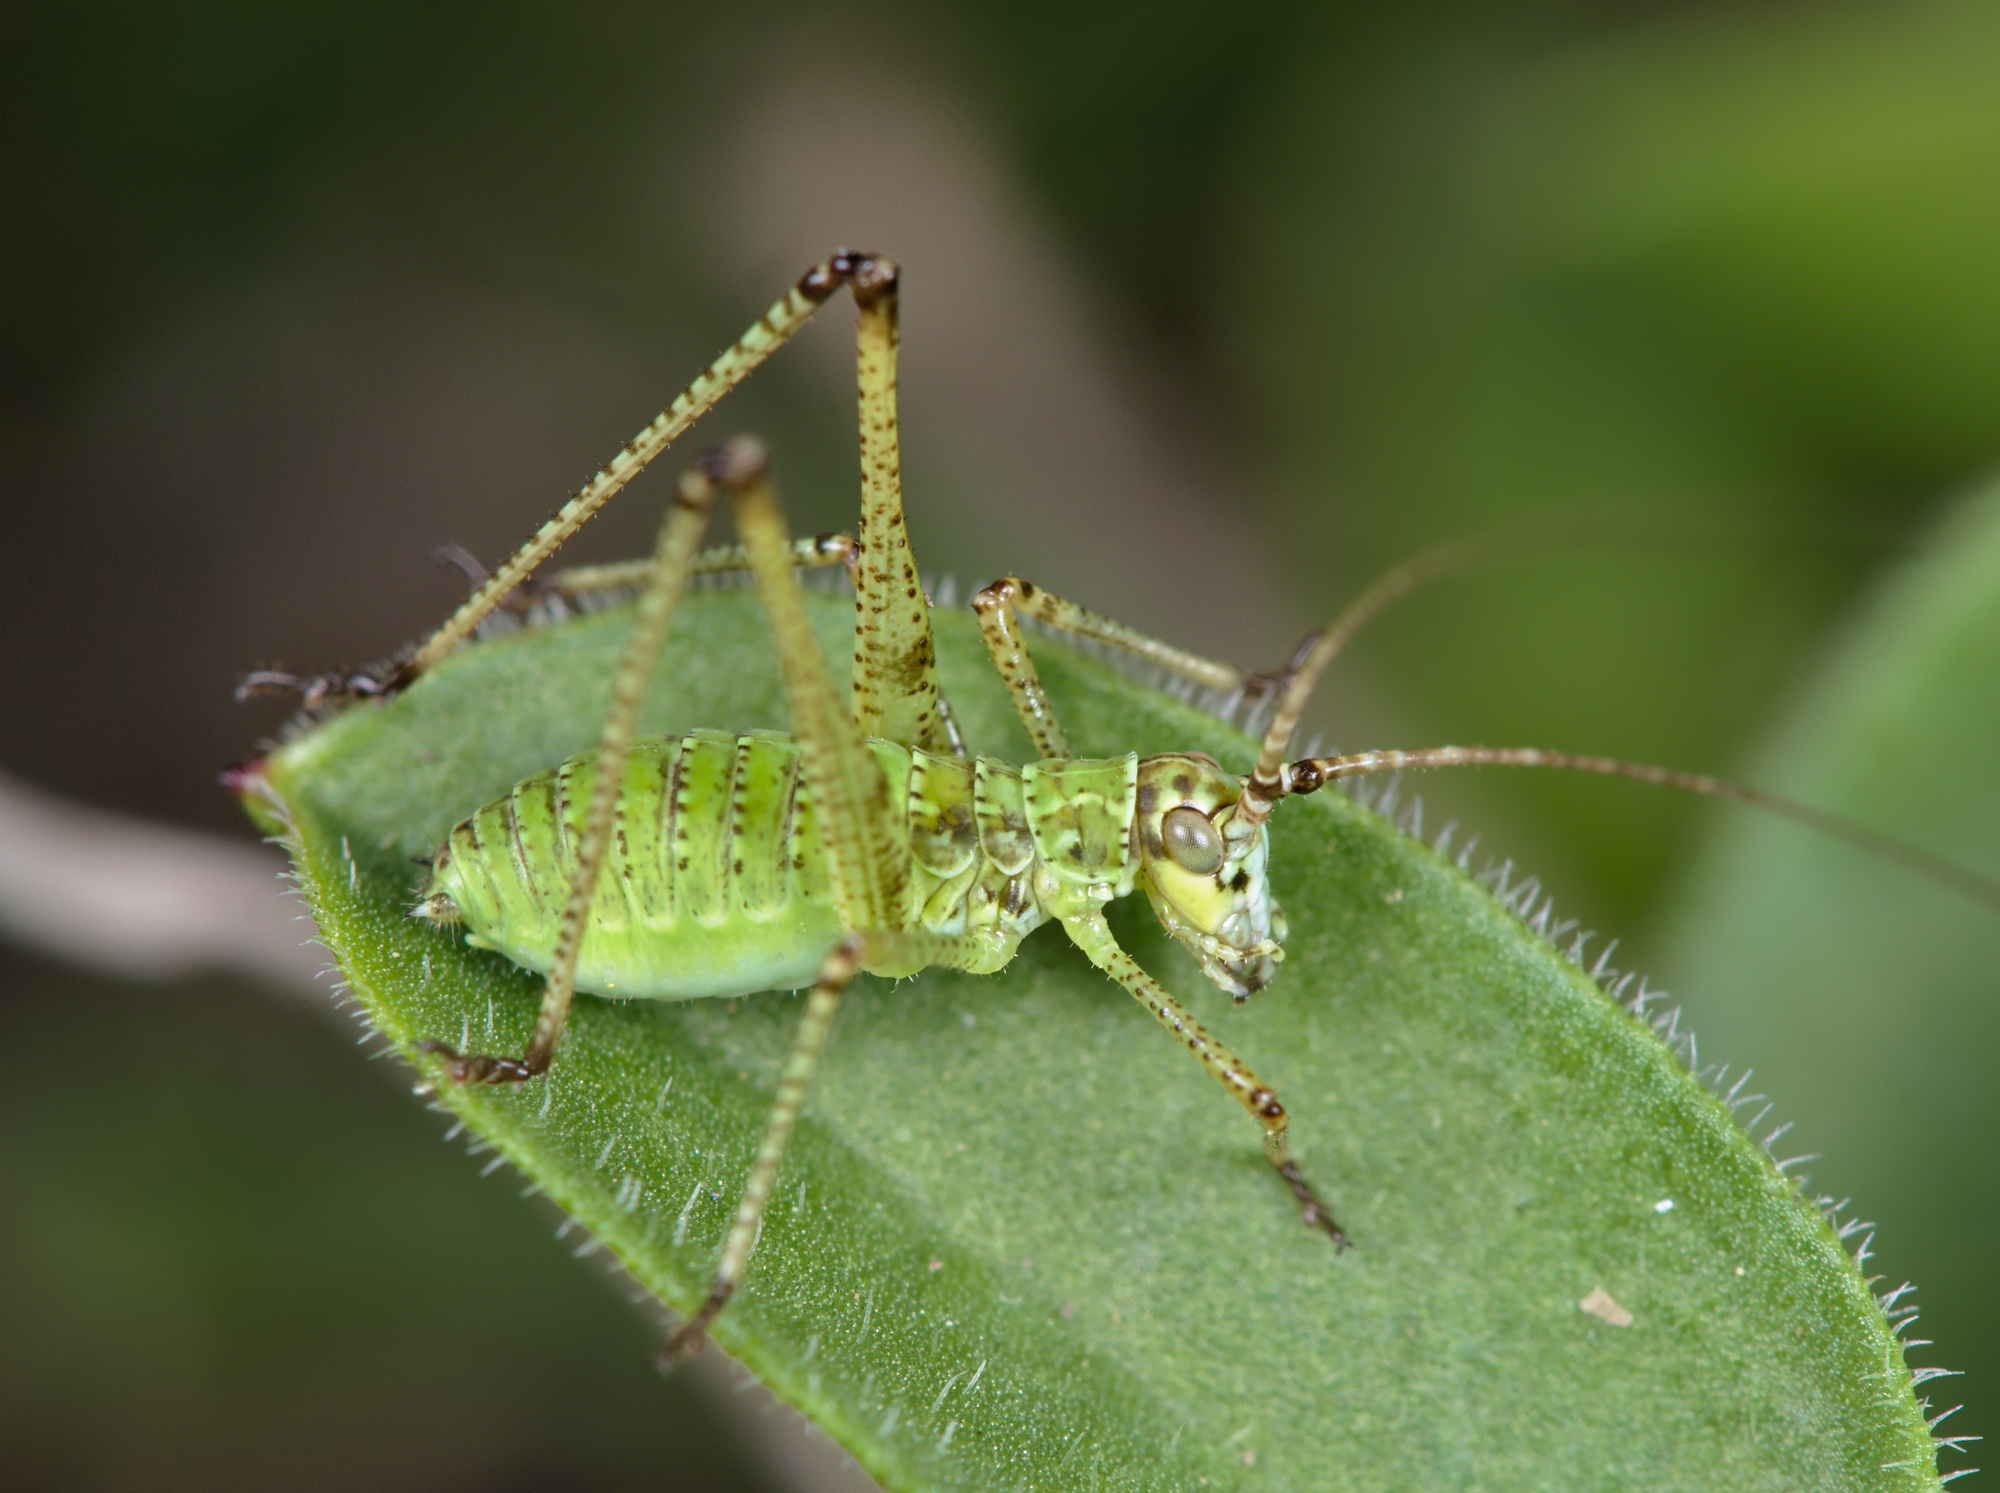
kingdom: Animalia
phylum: Arthropoda
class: Insecta
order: Orthoptera
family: Tettigoniidae
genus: Phaneroptera
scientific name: Phaneroptera falcata
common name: Sickle-bearing bush-cricket
